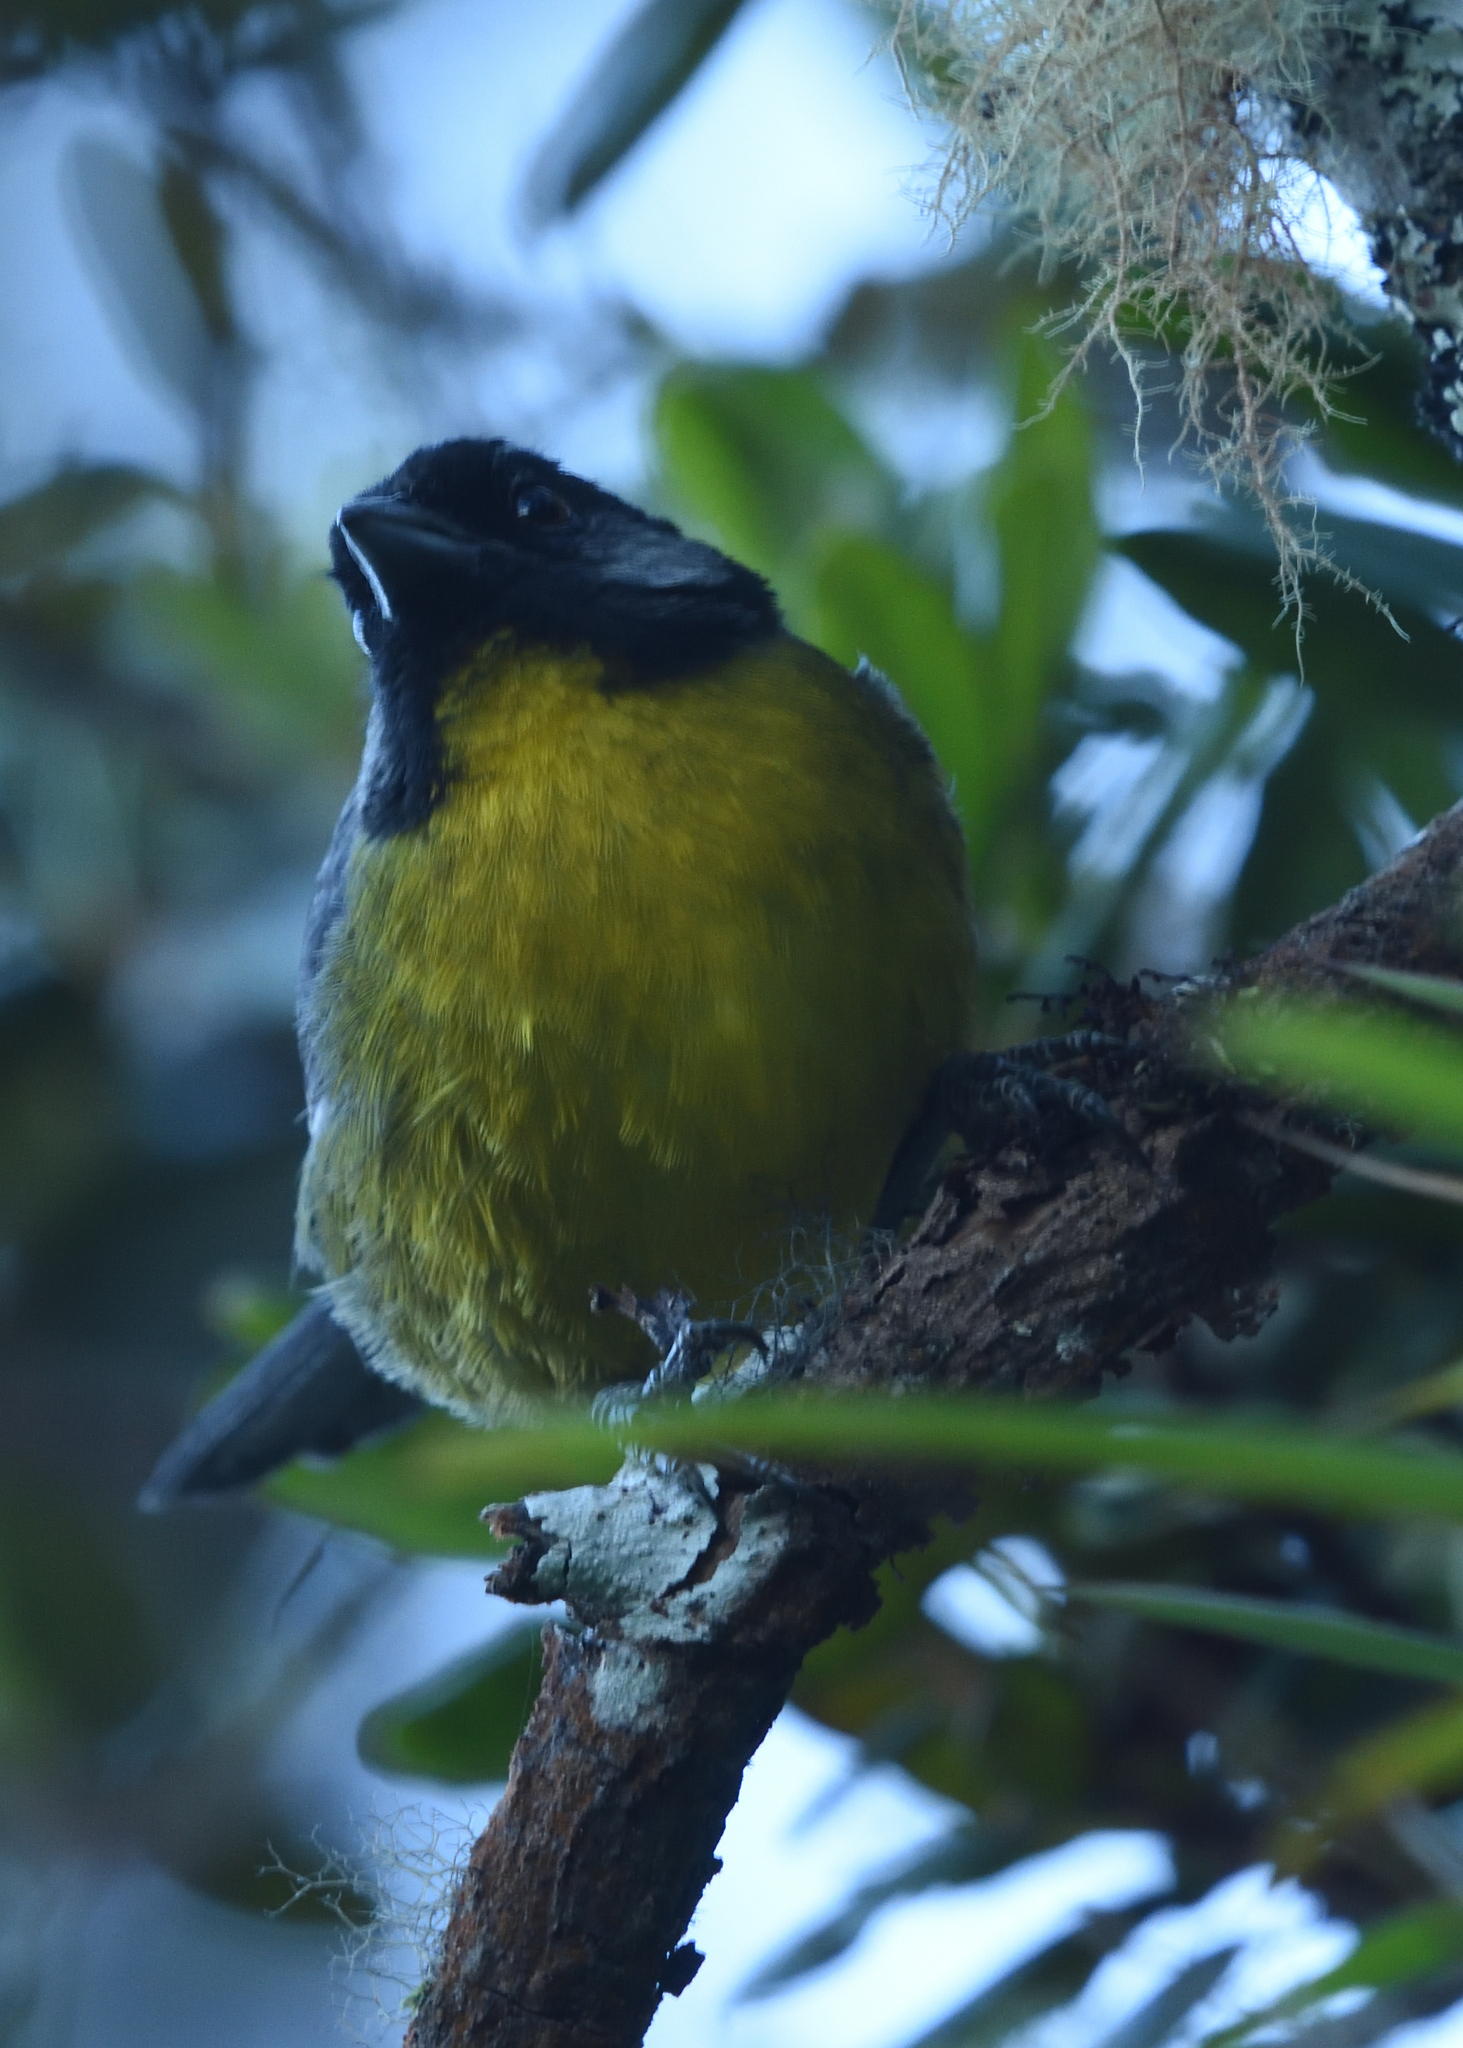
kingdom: Animalia
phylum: Chordata
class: Aves
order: Passeriformes
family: Passerellidae
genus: Atlapetes
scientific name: Atlapetes melanocephalus
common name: Santa marta brush-finch
